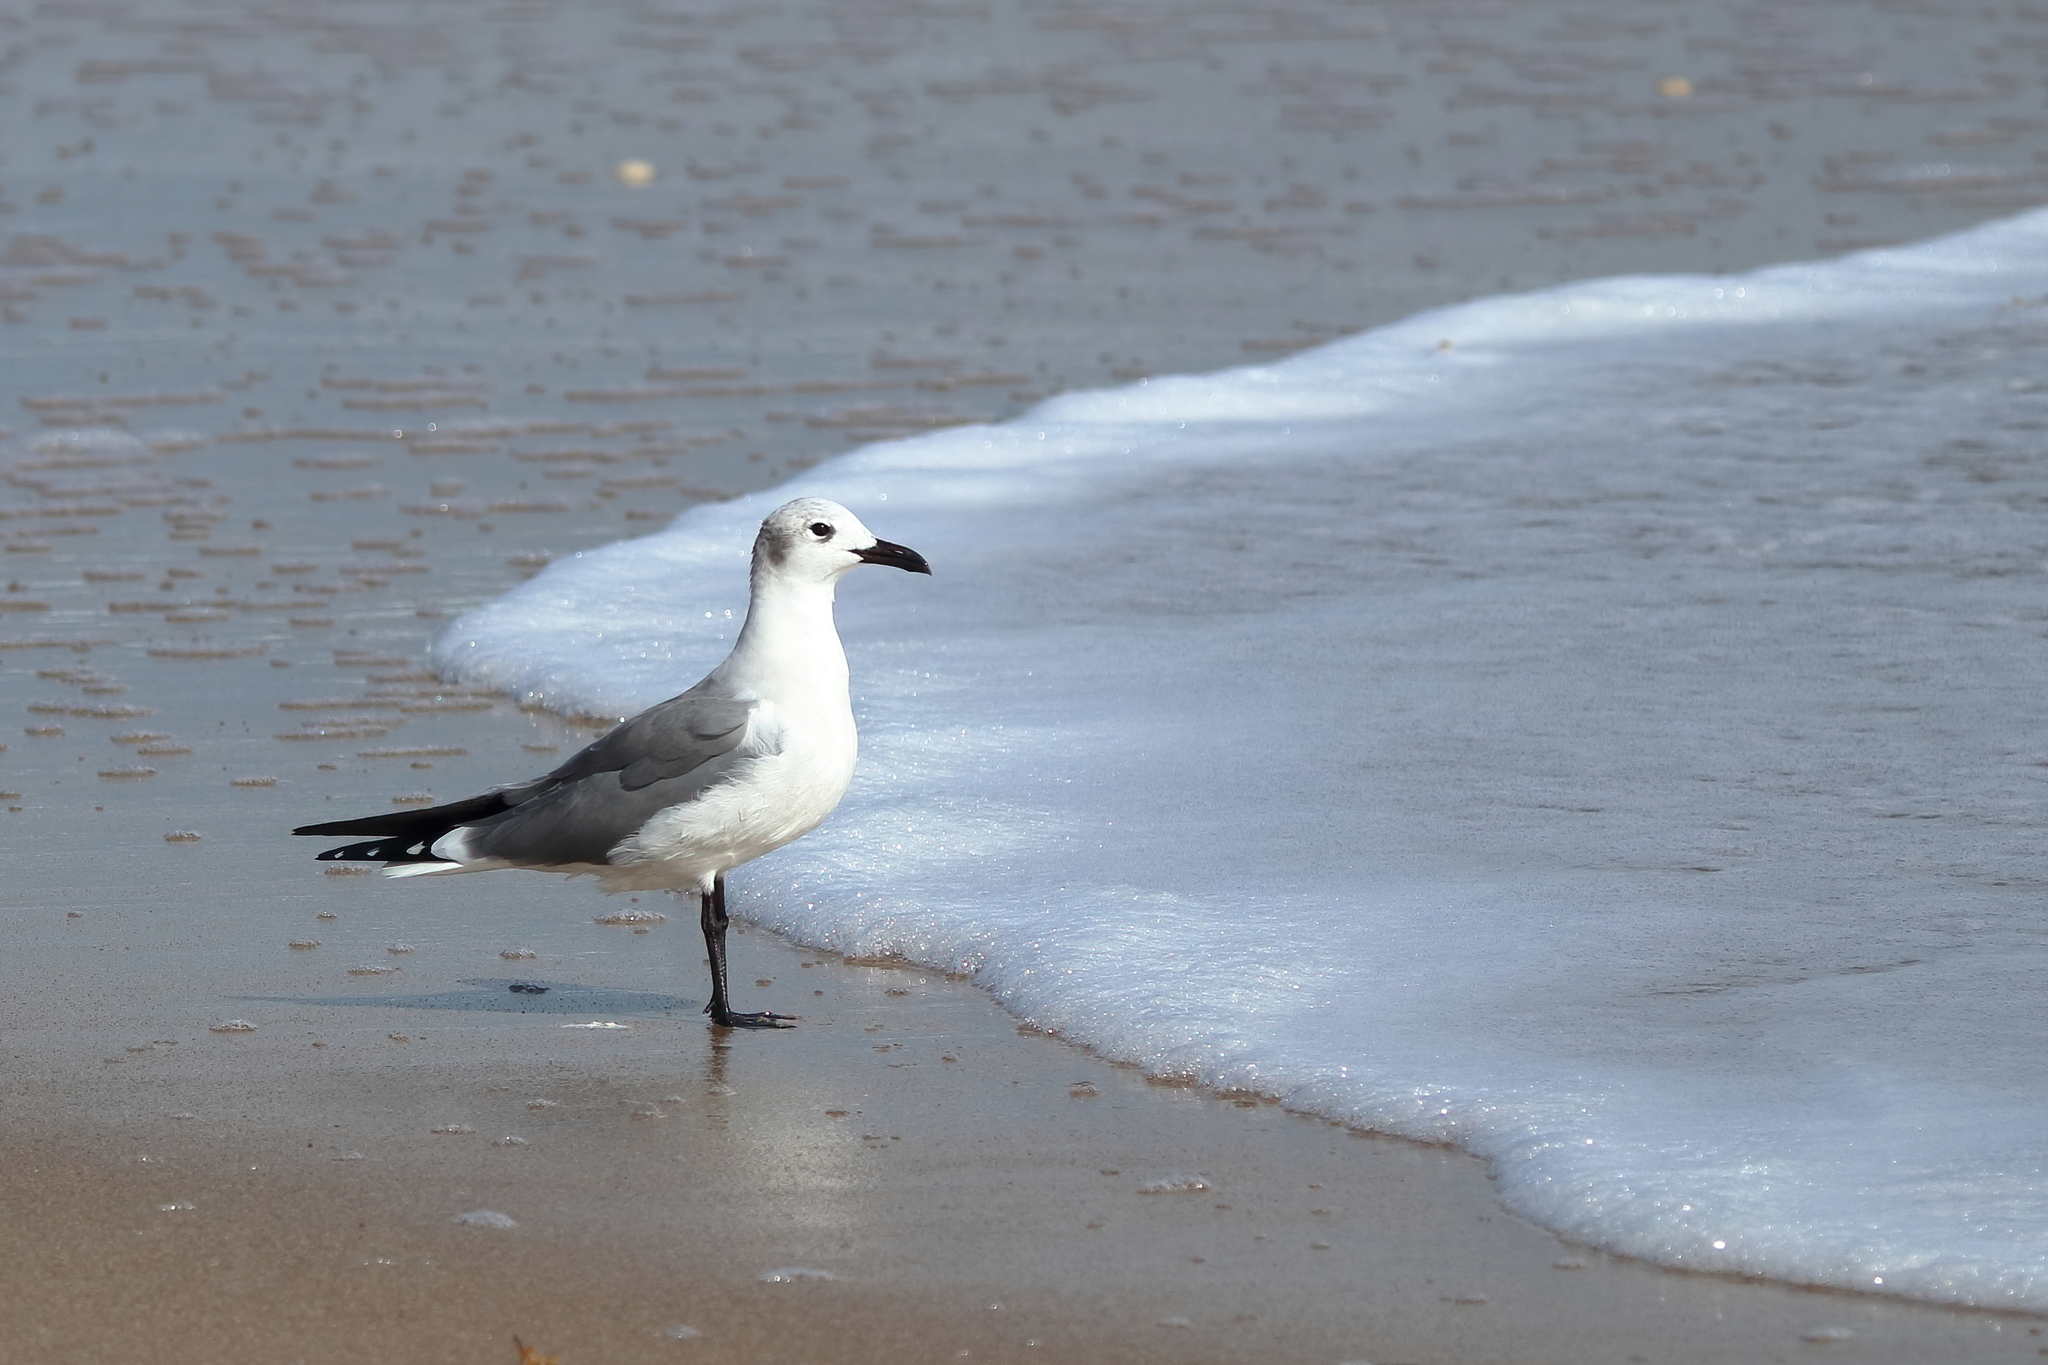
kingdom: Animalia
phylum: Chordata
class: Aves
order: Charadriiformes
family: Laridae
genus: Leucophaeus
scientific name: Leucophaeus atricilla
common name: Laughing gull
